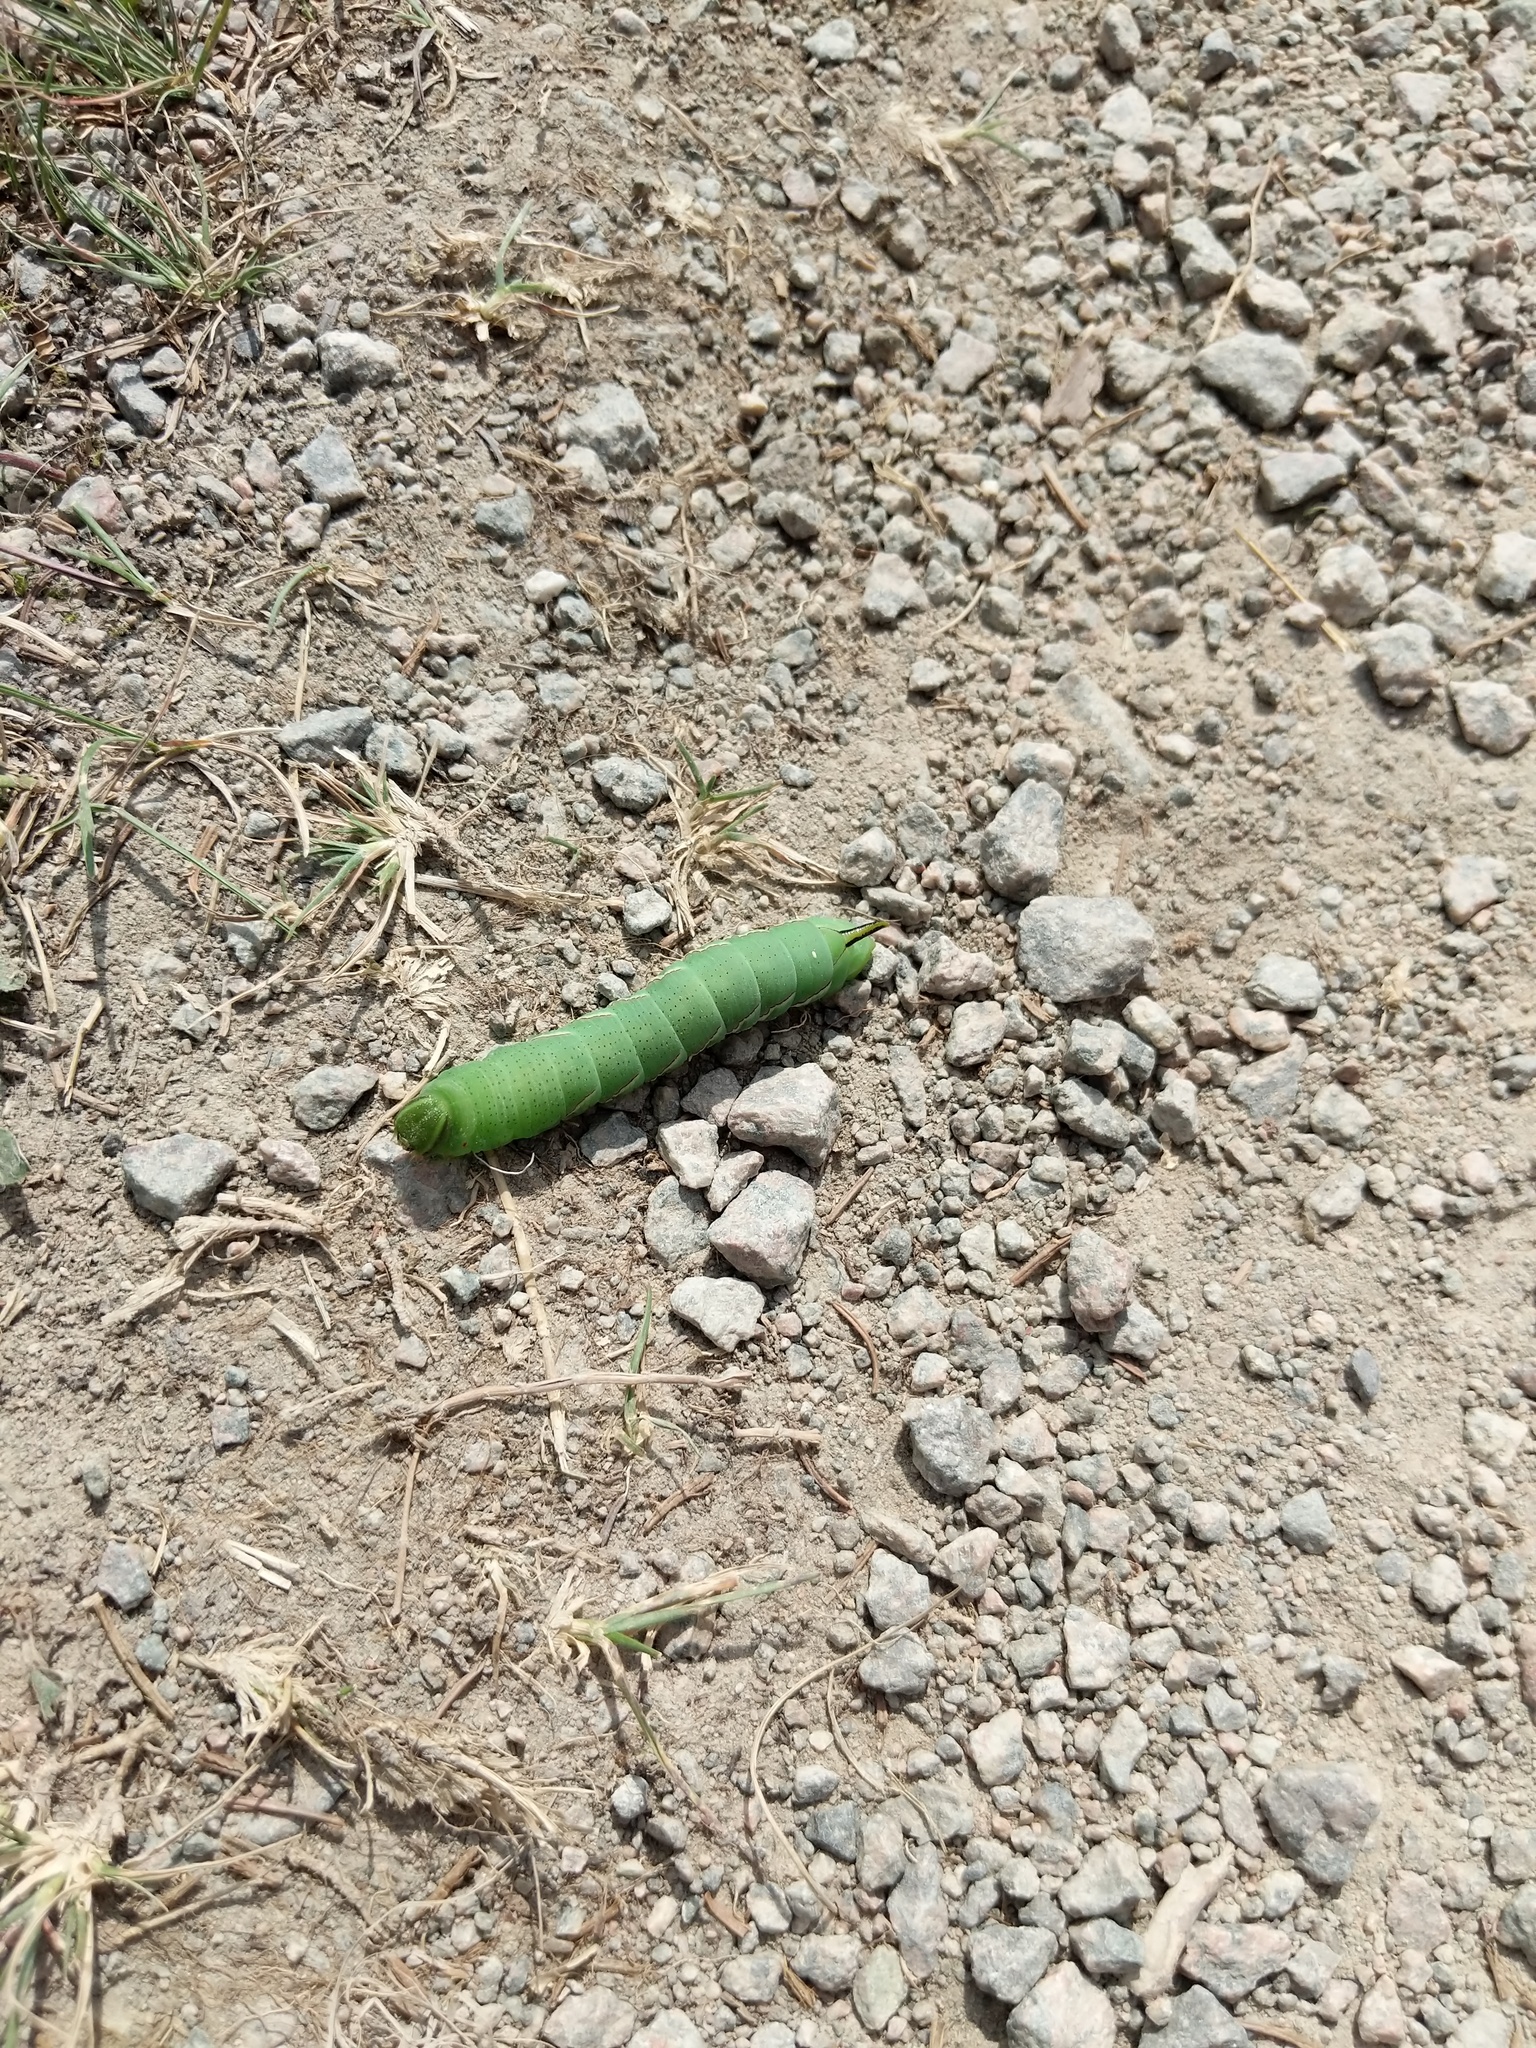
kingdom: Animalia
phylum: Arthropoda
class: Insecta
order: Lepidoptera
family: Sphingidae
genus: Sphinx
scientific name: Sphinx poecila
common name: Northern apple sphinx
